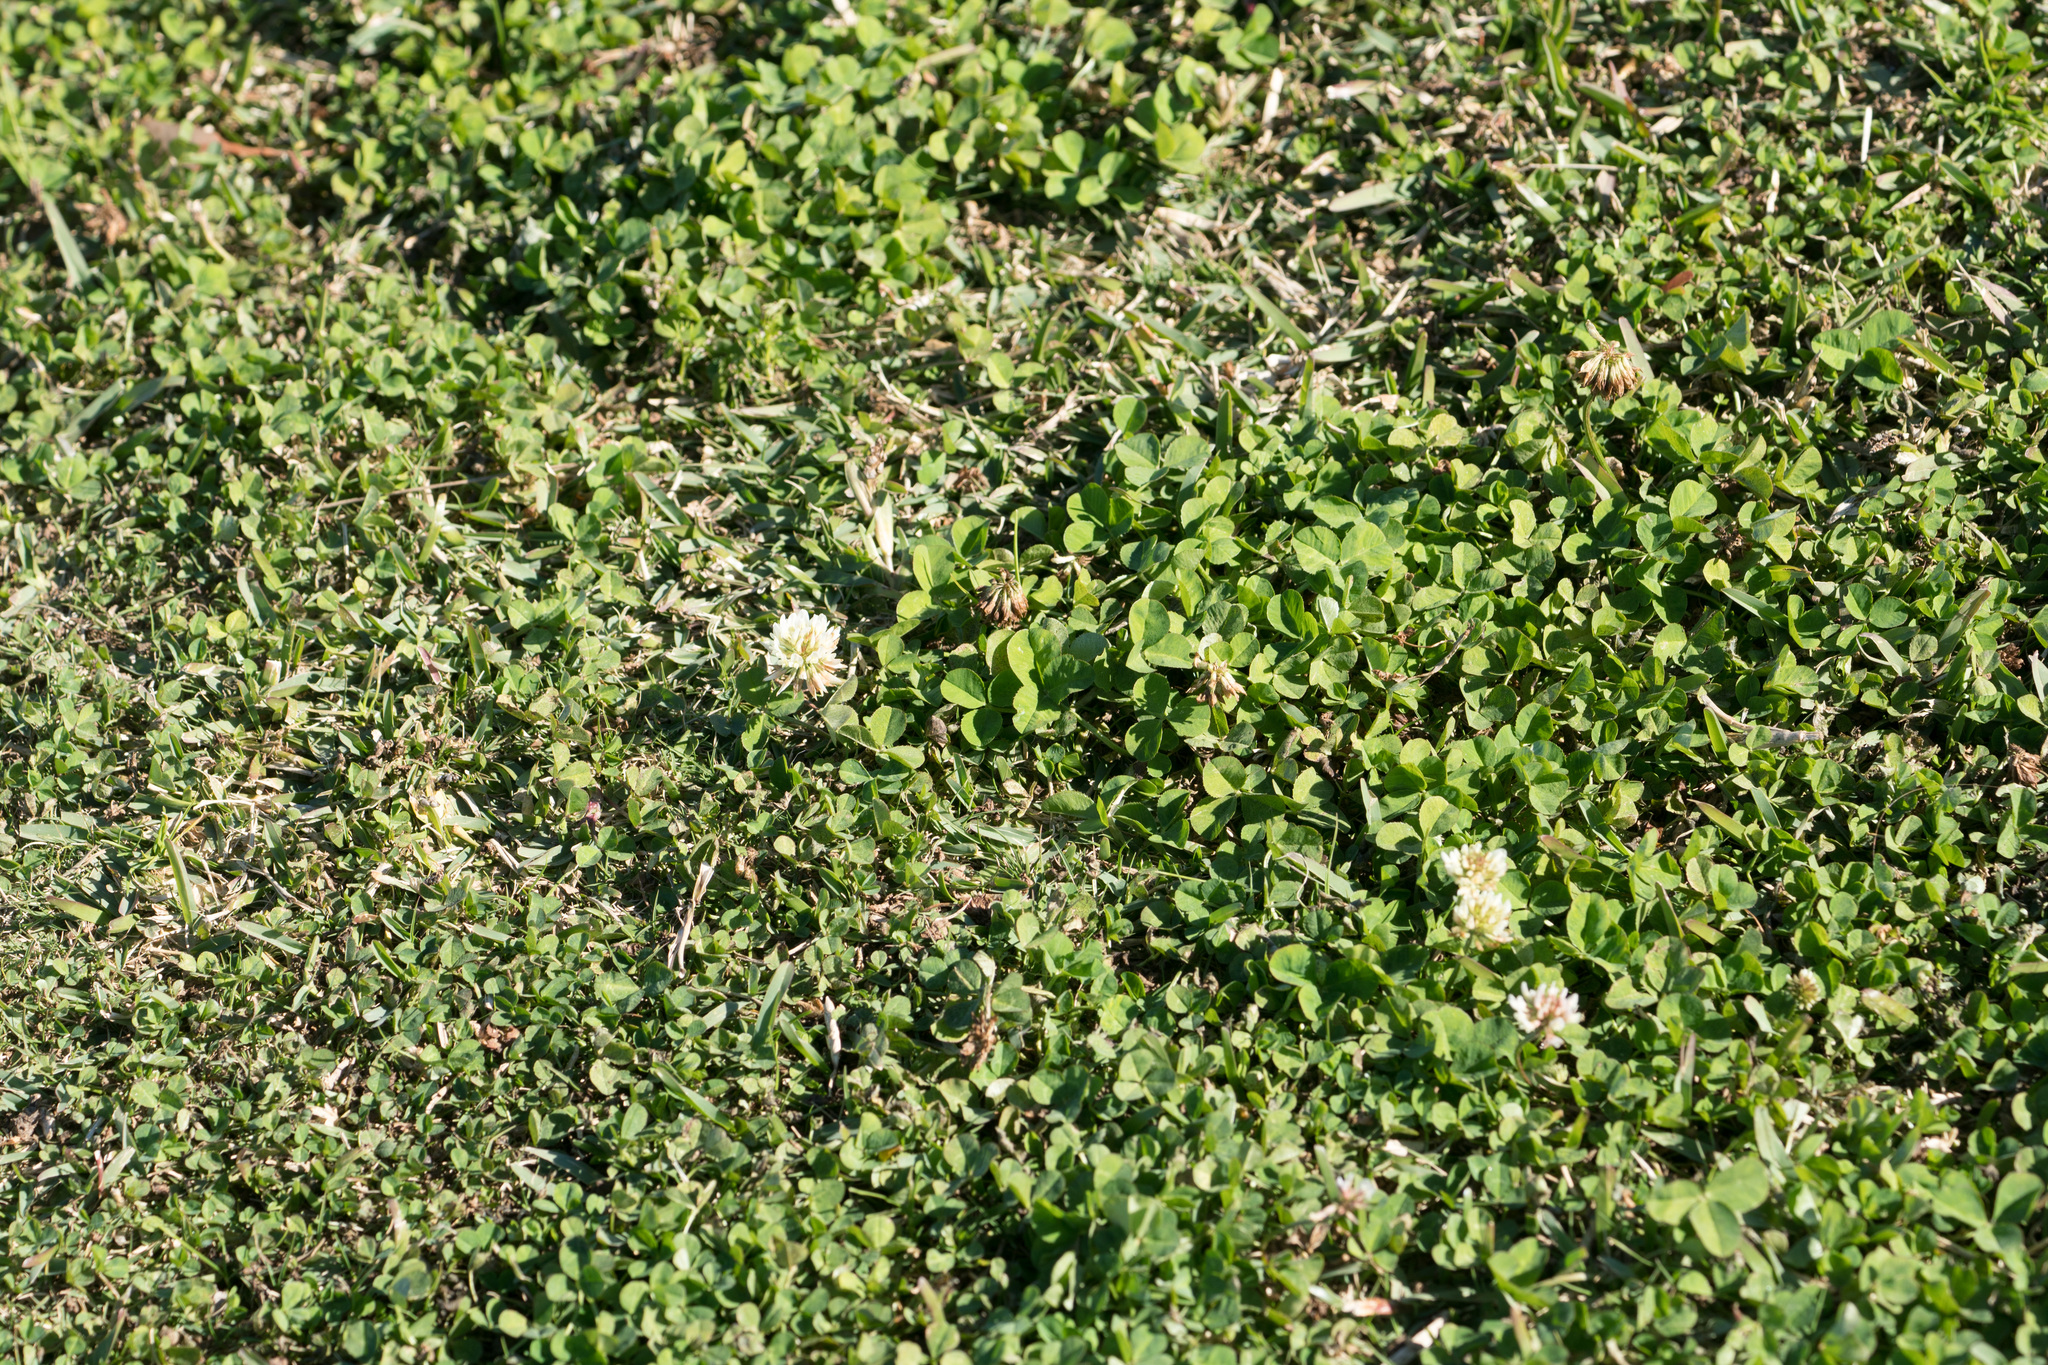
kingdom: Plantae
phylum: Tracheophyta
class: Magnoliopsida
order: Fabales
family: Fabaceae
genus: Trifolium
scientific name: Trifolium repens
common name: White clover
